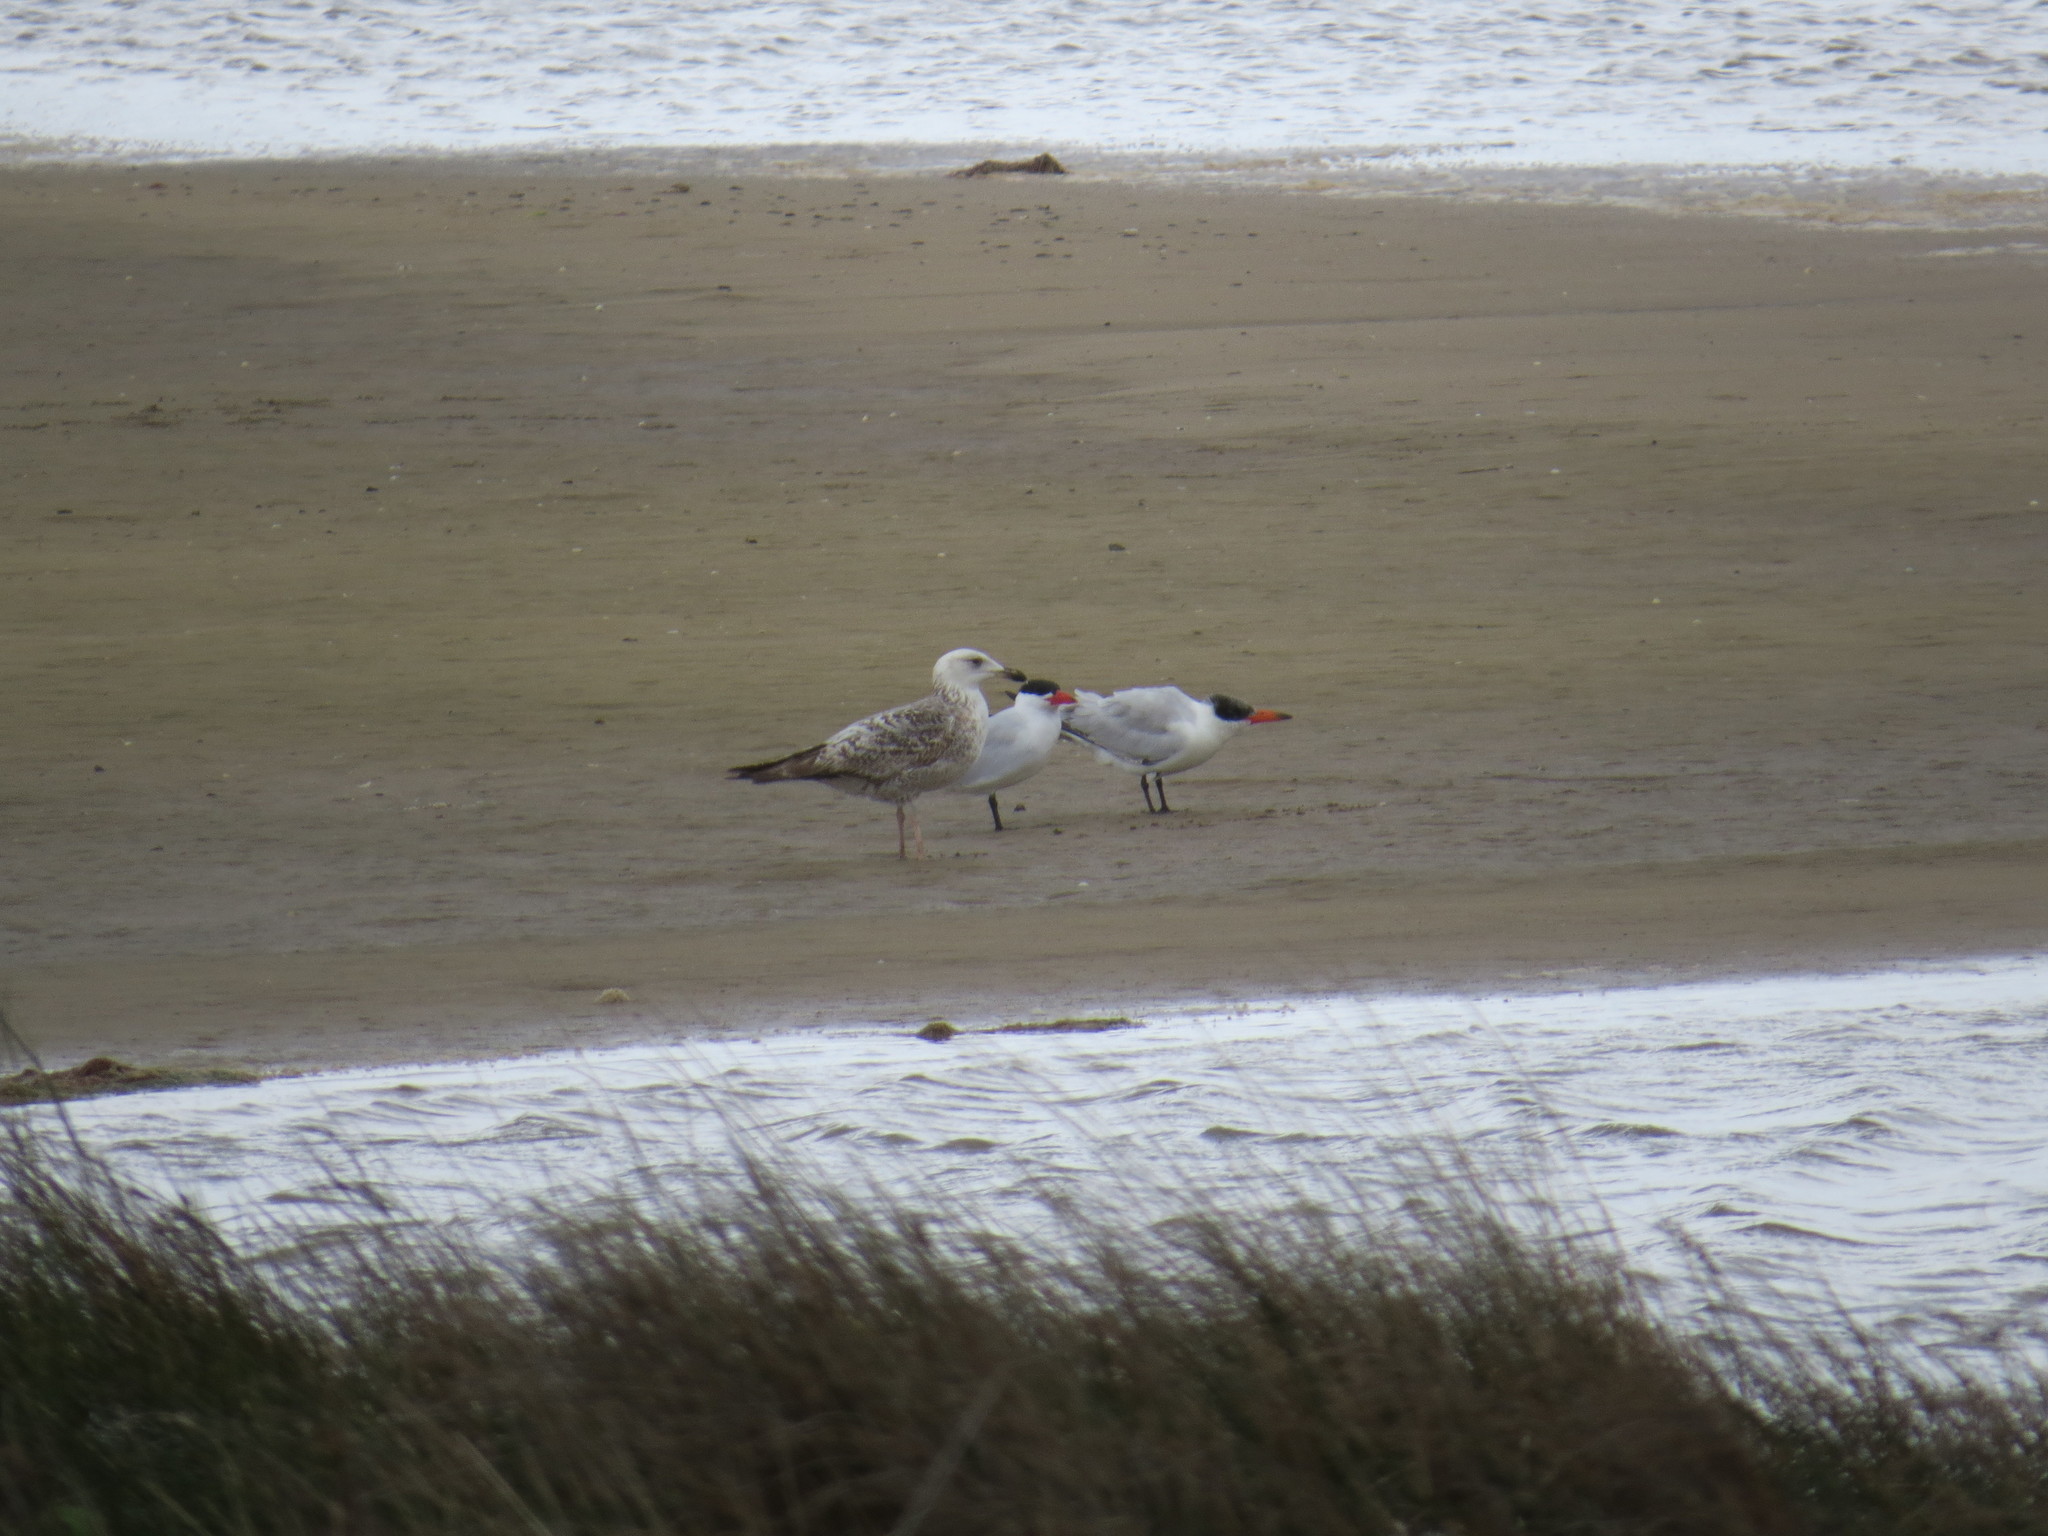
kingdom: Animalia
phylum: Chordata
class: Aves
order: Charadriiformes
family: Laridae
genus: Hydroprogne
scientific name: Hydroprogne caspia
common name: Caspian tern
